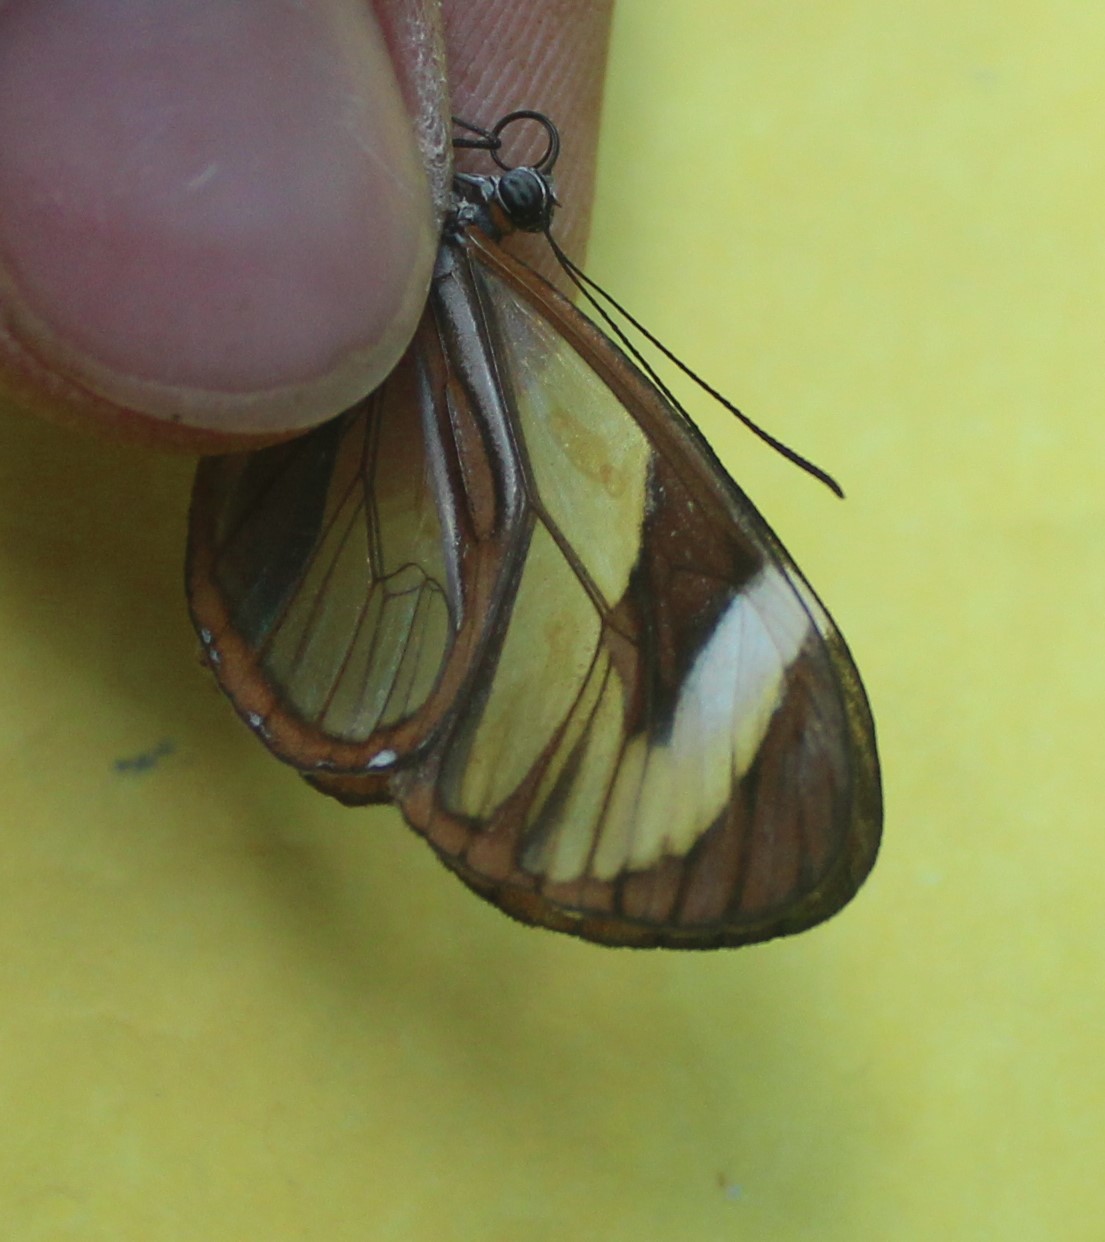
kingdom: Animalia
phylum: Arthropoda
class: Insecta
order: Lepidoptera
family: Nymphalidae
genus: Ithomia
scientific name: Ithomia patilla
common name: Patilla clearwing
